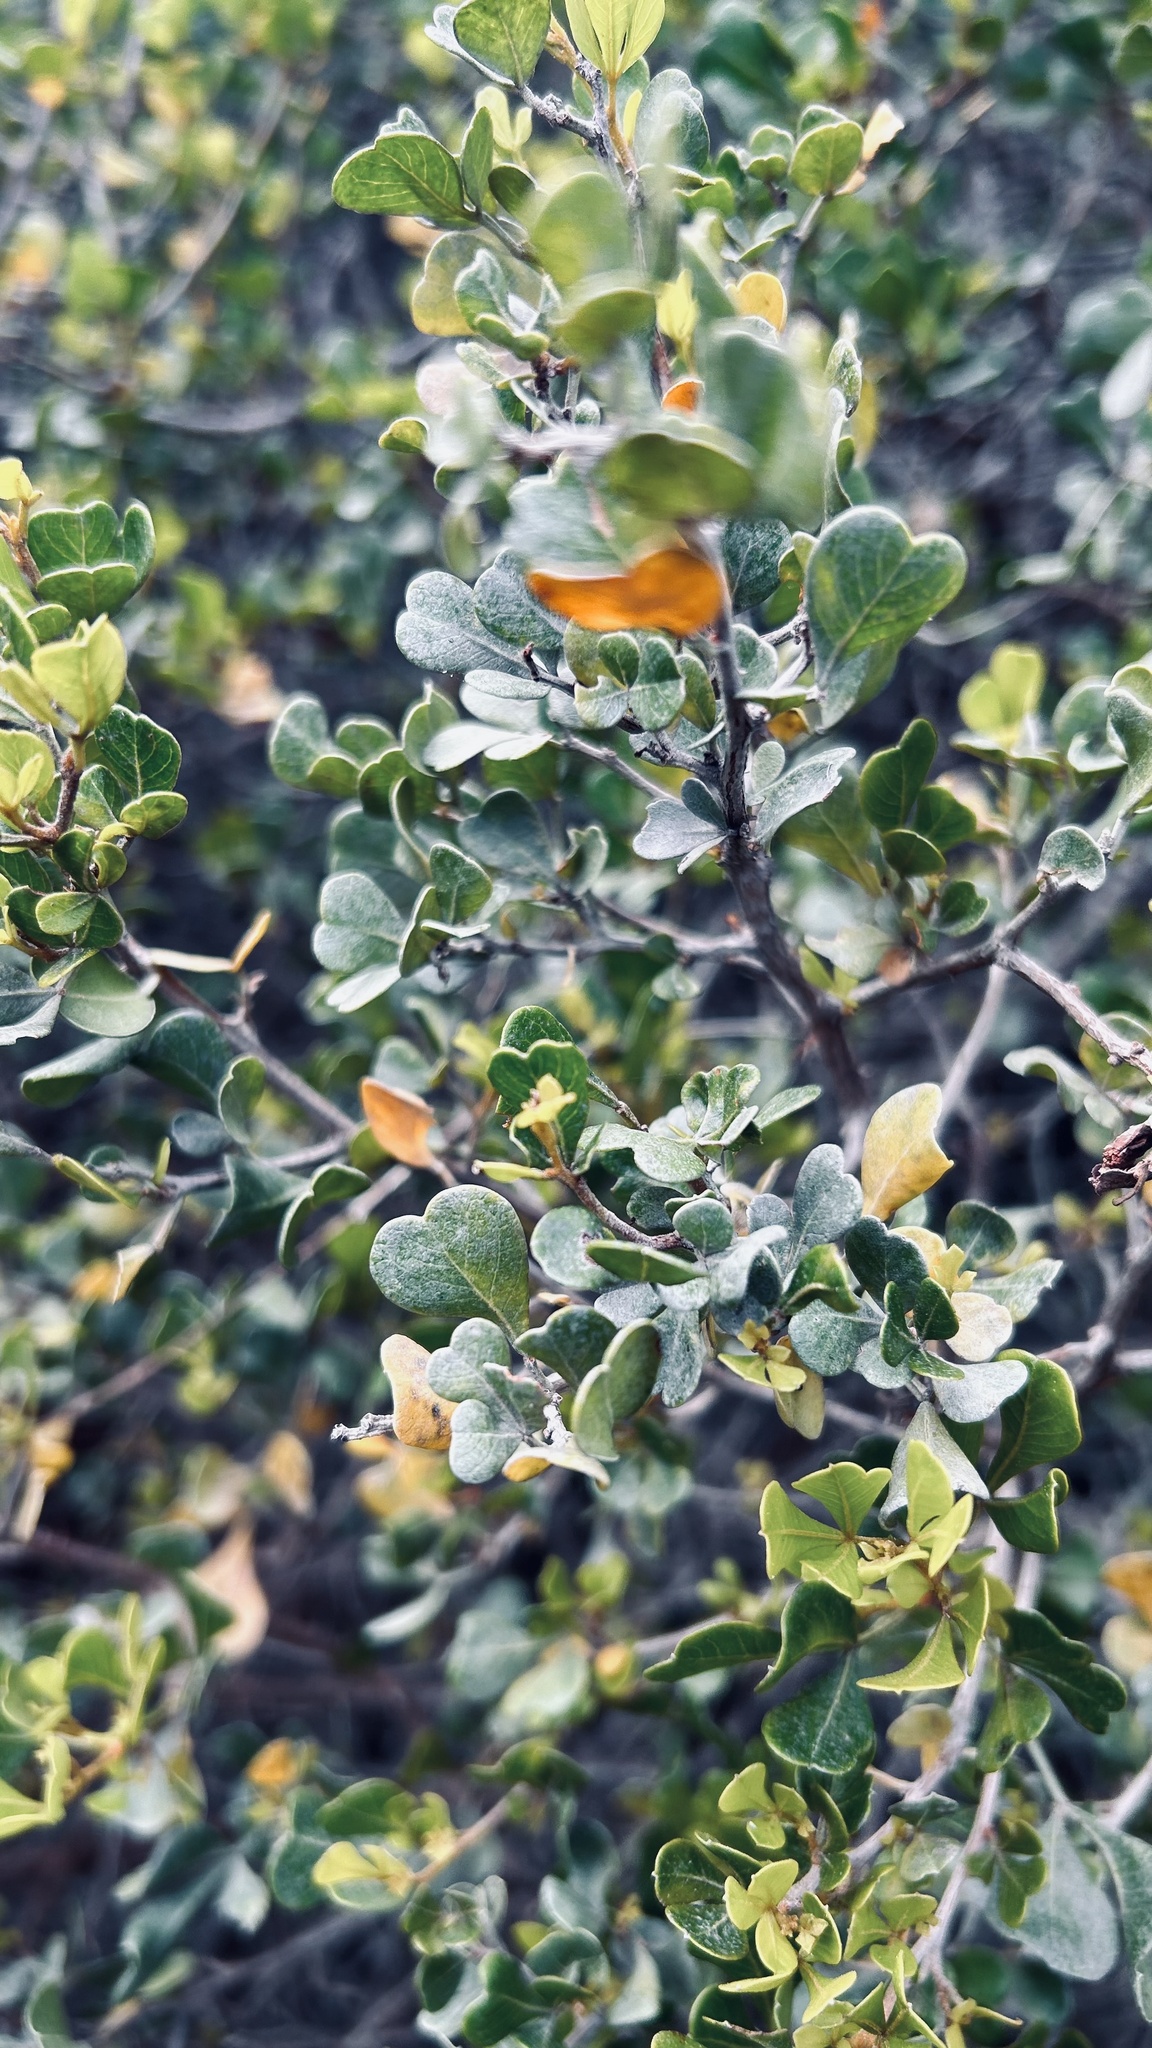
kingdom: Plantae
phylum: Tracheophyta
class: Magnoliopsida
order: Sapindales
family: Anacardiaceae
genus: Searsia
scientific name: Searsia glauca
